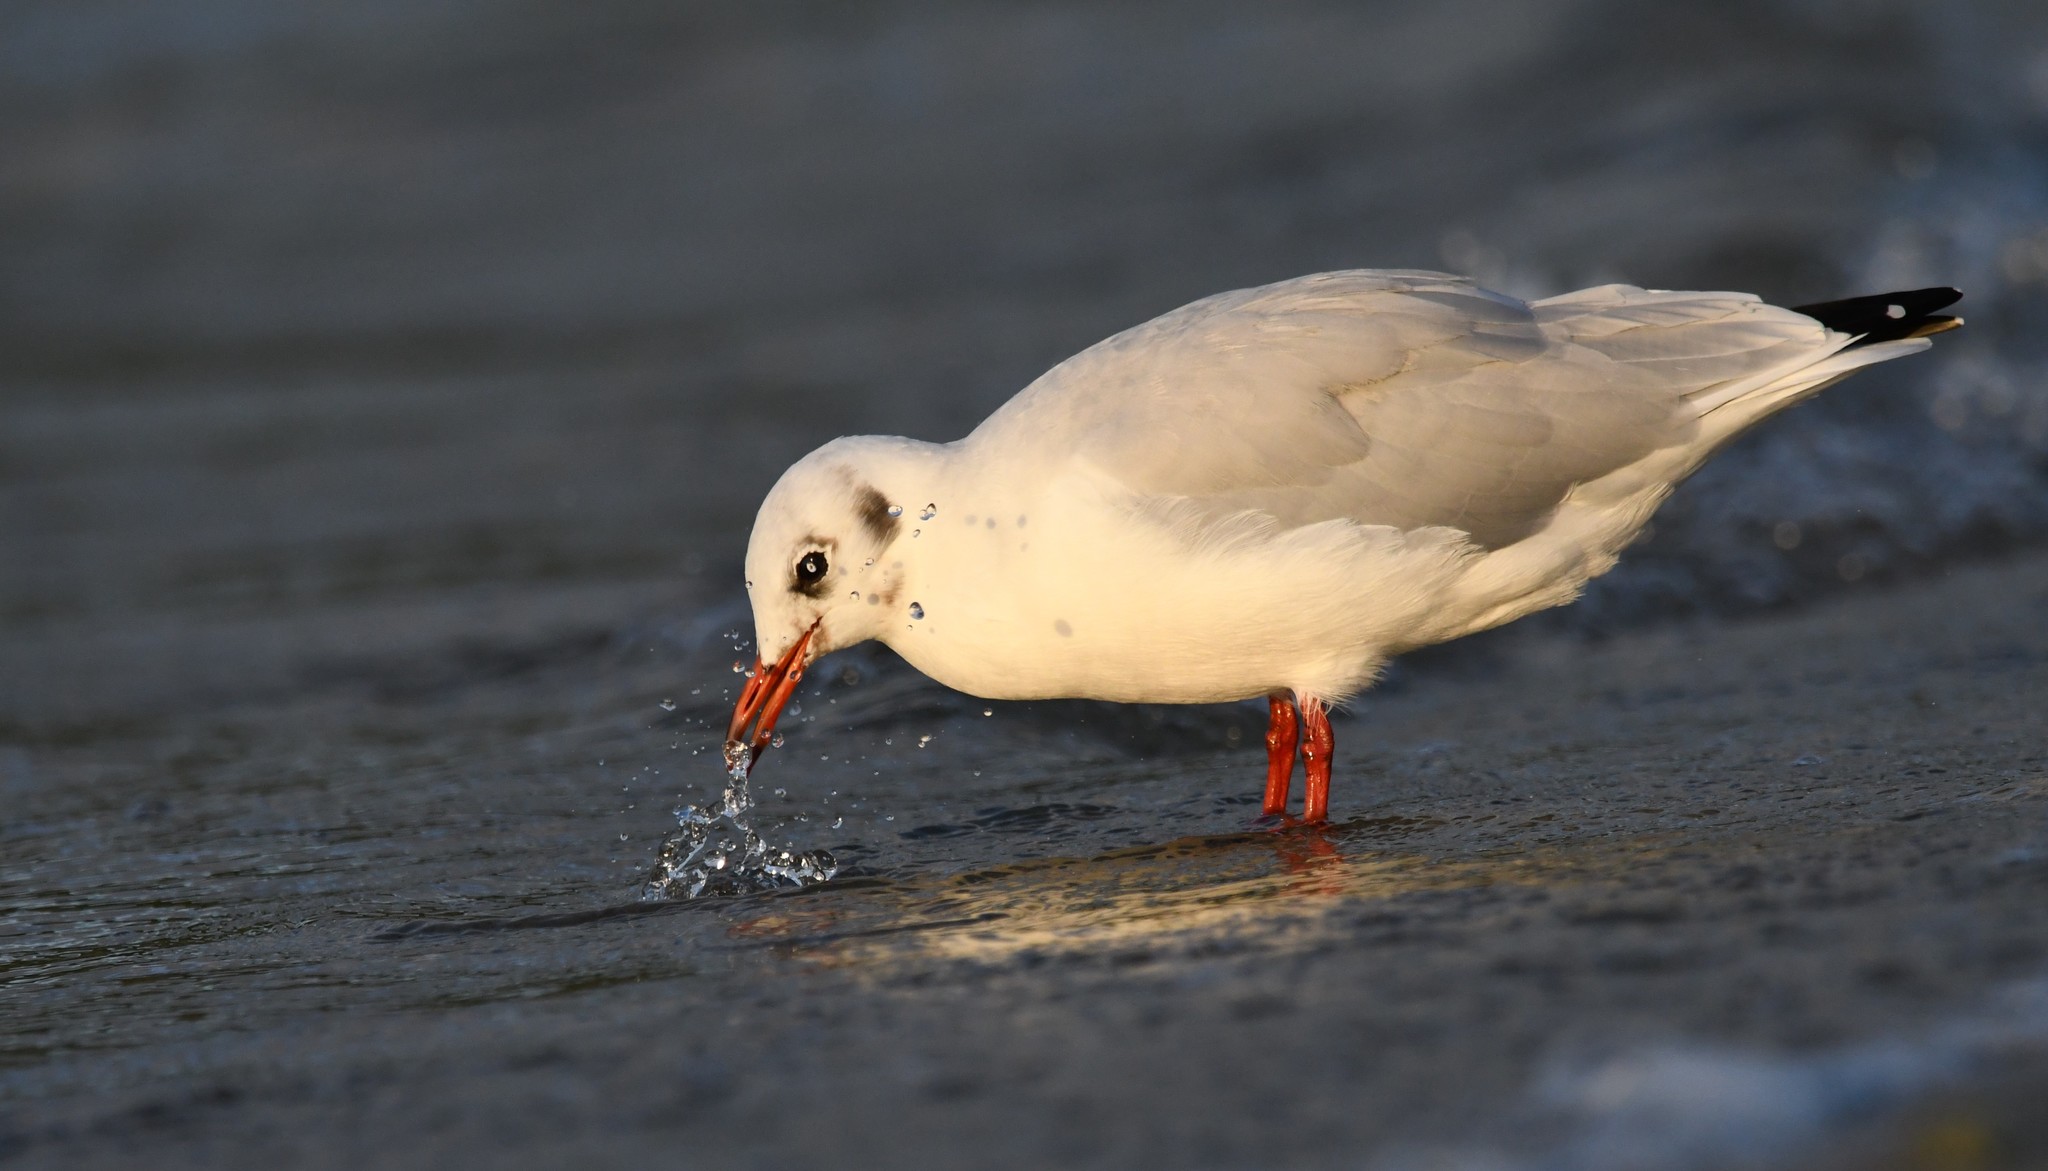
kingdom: Animalia
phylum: Chordata
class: Aves
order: Charadriiformes
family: Laridae
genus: Chroicocephalus
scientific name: Chroicocephalus ridibundus
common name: Black-headed gull
